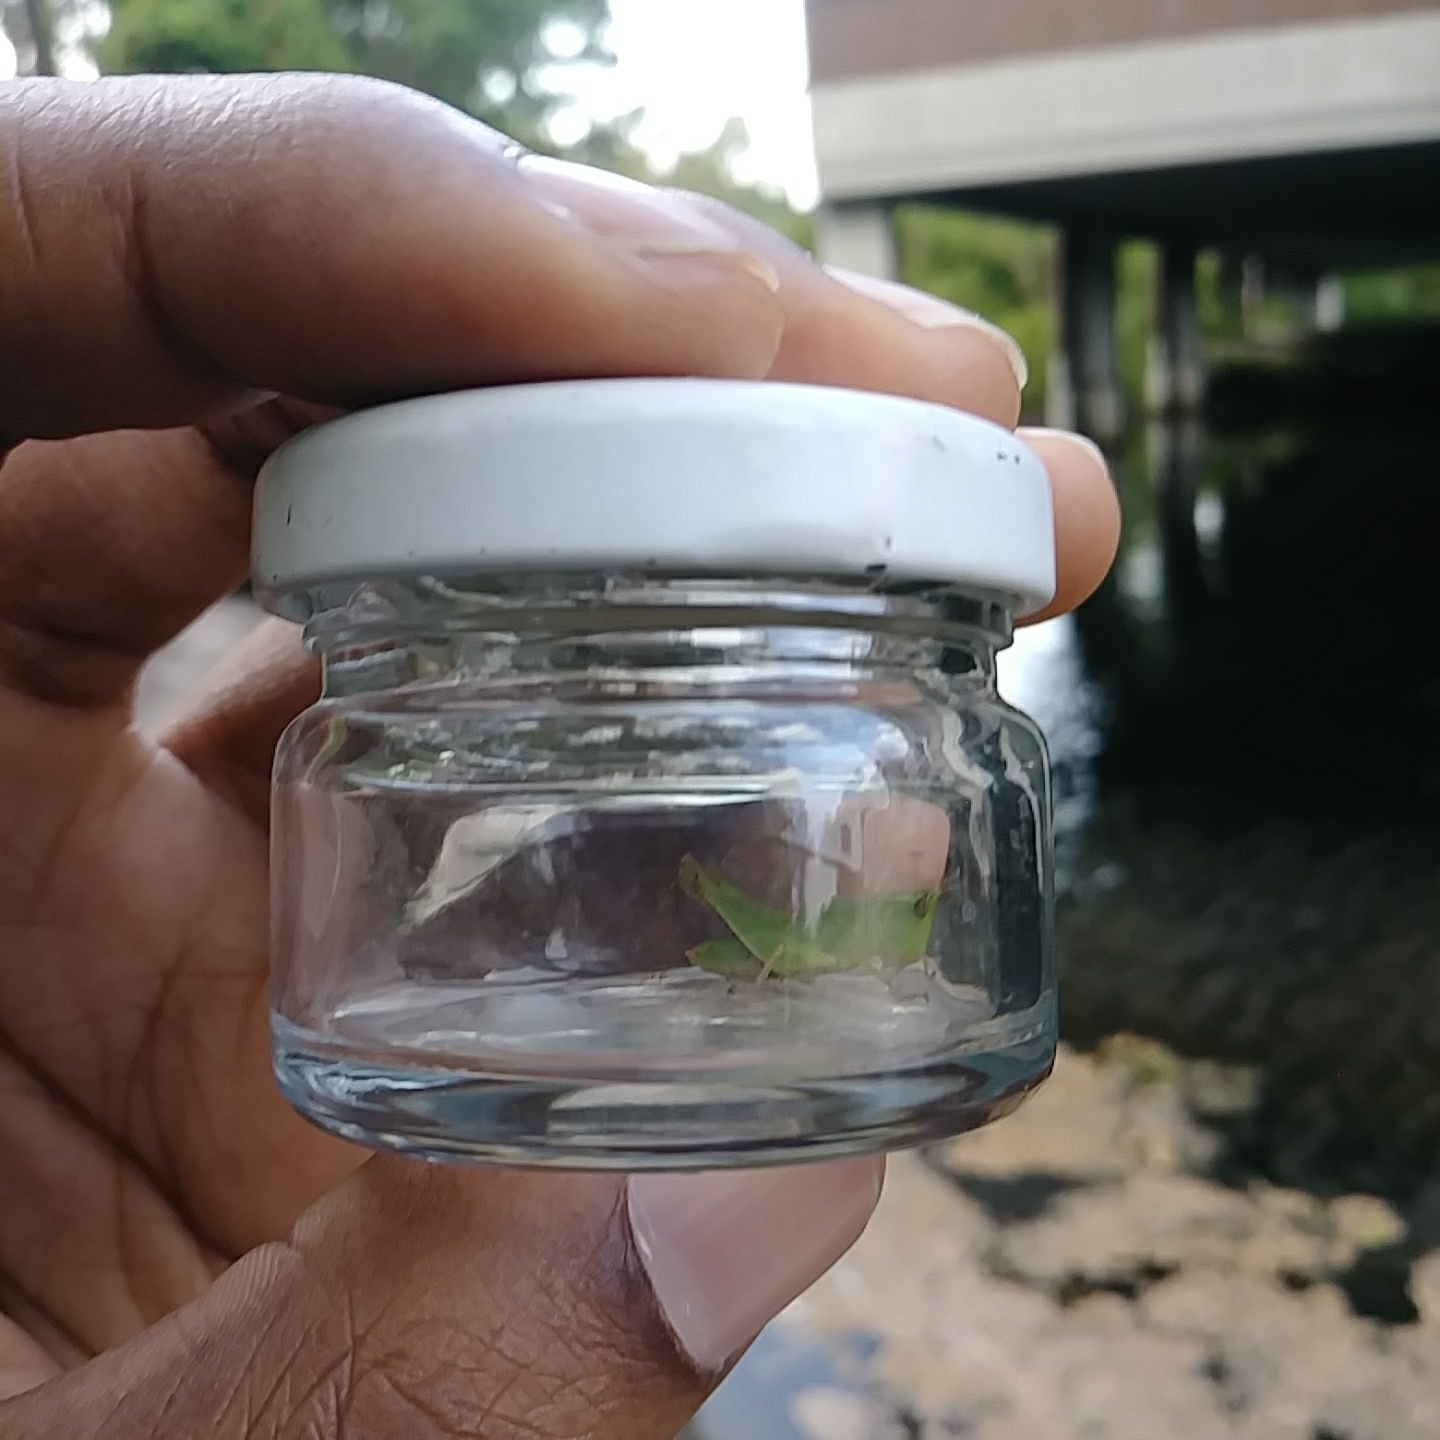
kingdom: Animalia
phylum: Arthropoda
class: Insecta
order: Orthoptera
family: Acrididae
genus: Dichromorpha
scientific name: Dichromorpha viridis
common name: Short-winged green grasshopper
